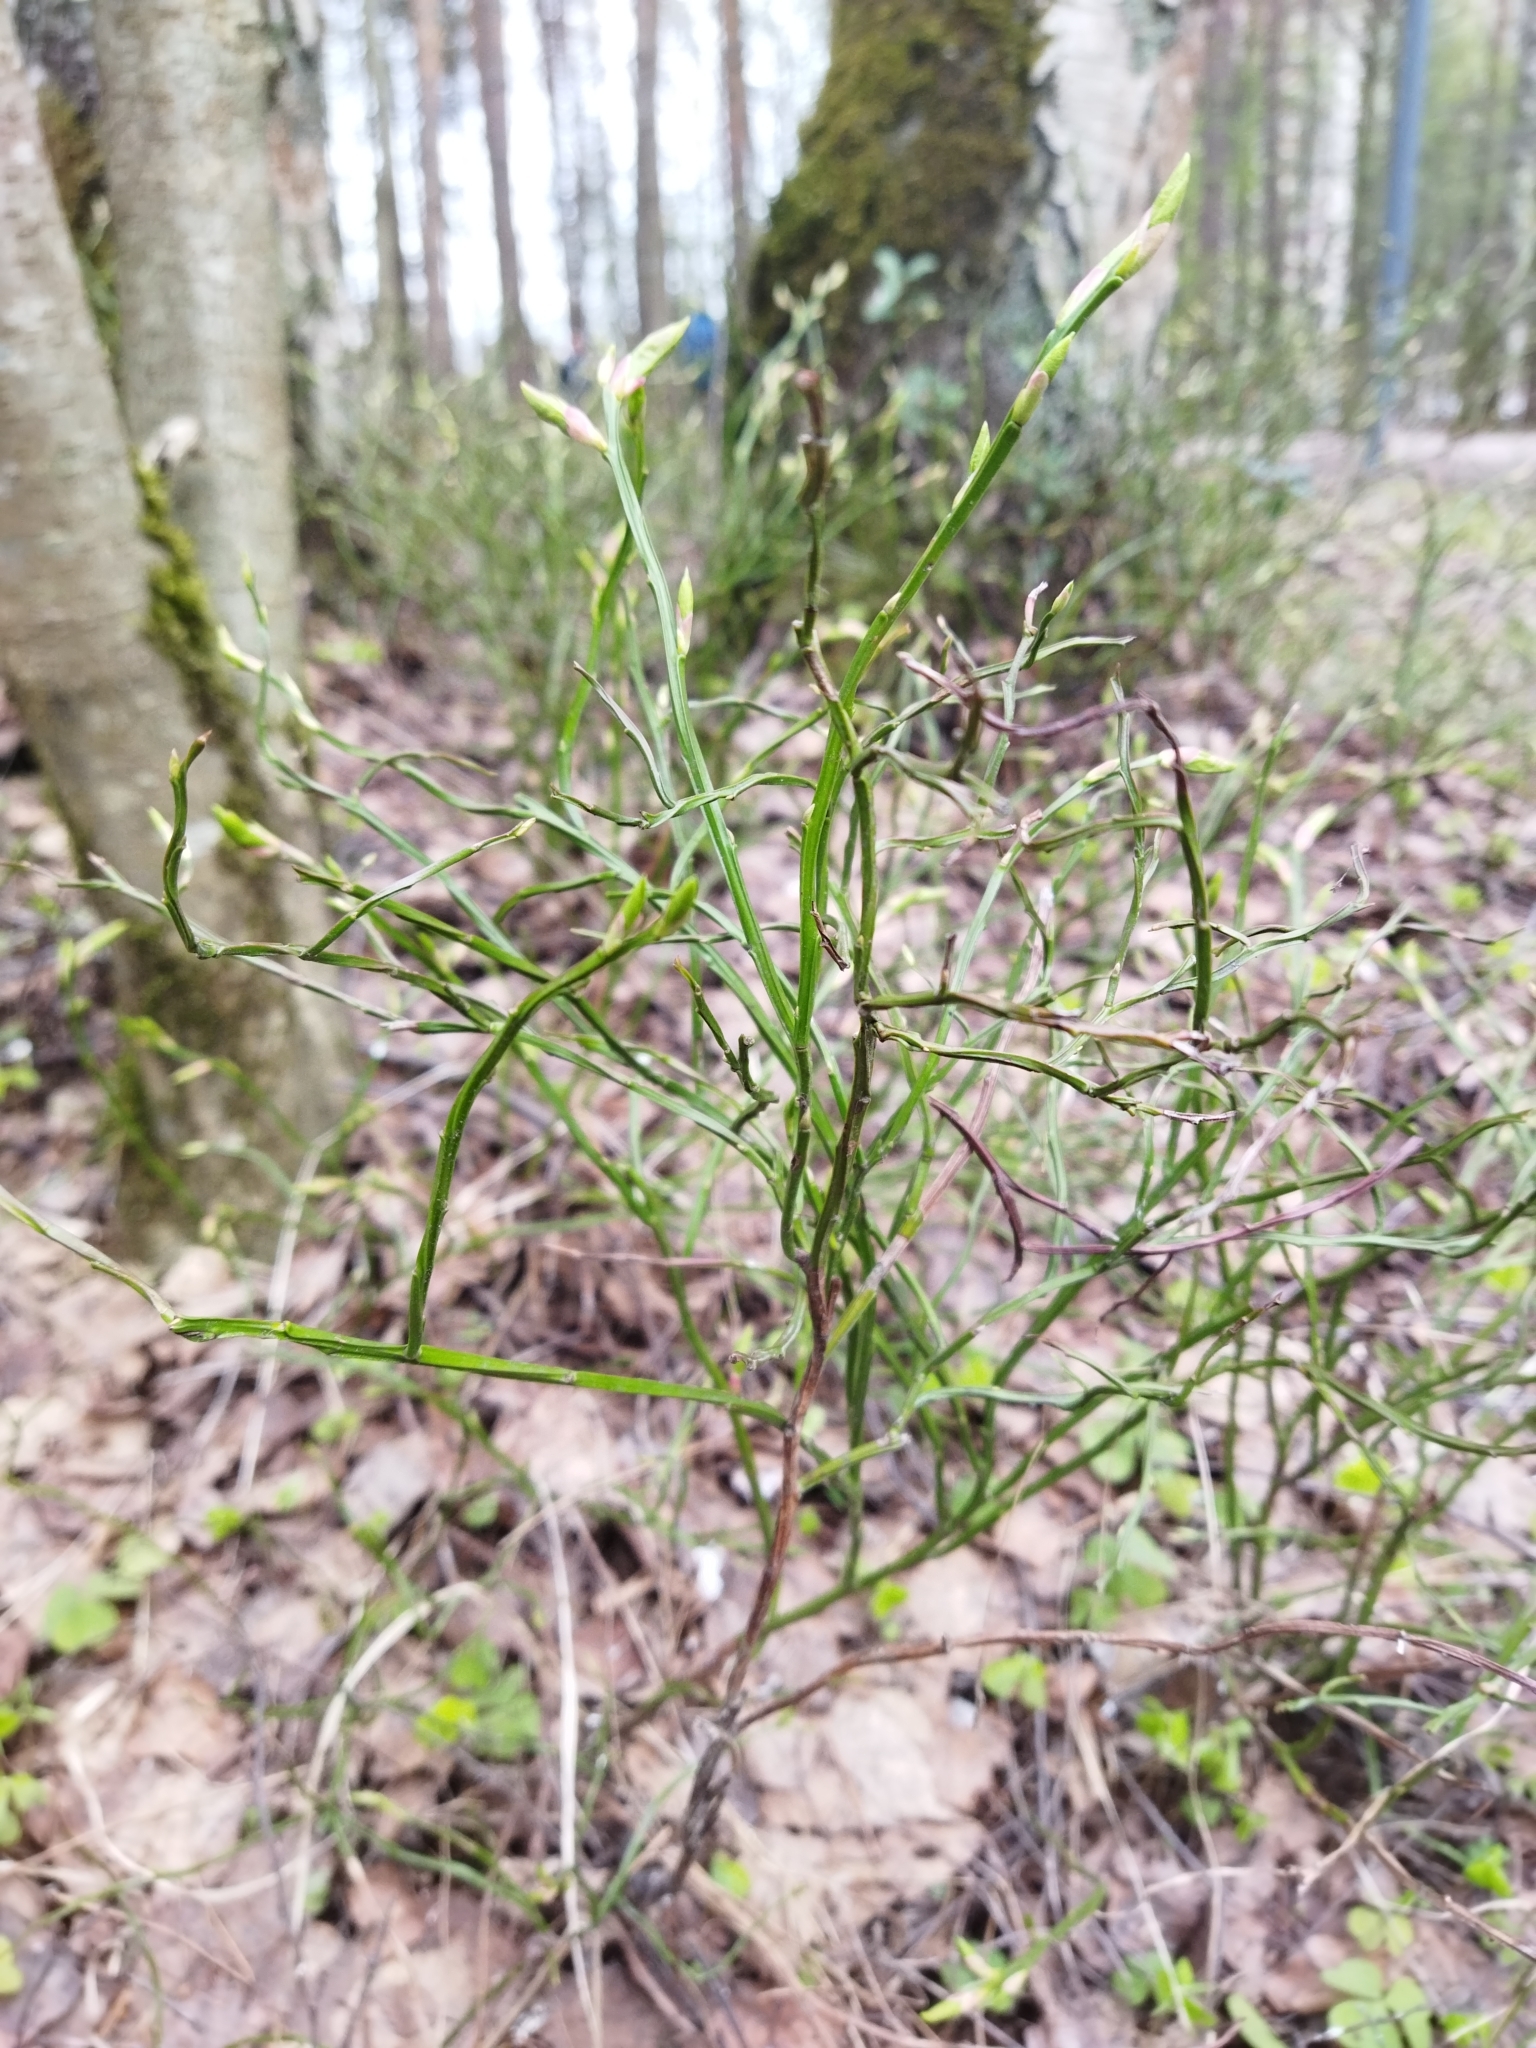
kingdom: Plantae
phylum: Tracheophyta
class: Magnoliopsida
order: Ericales
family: Ericaceae
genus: Vaccinium
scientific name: Vaccinium myrtillus
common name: Bilberry
